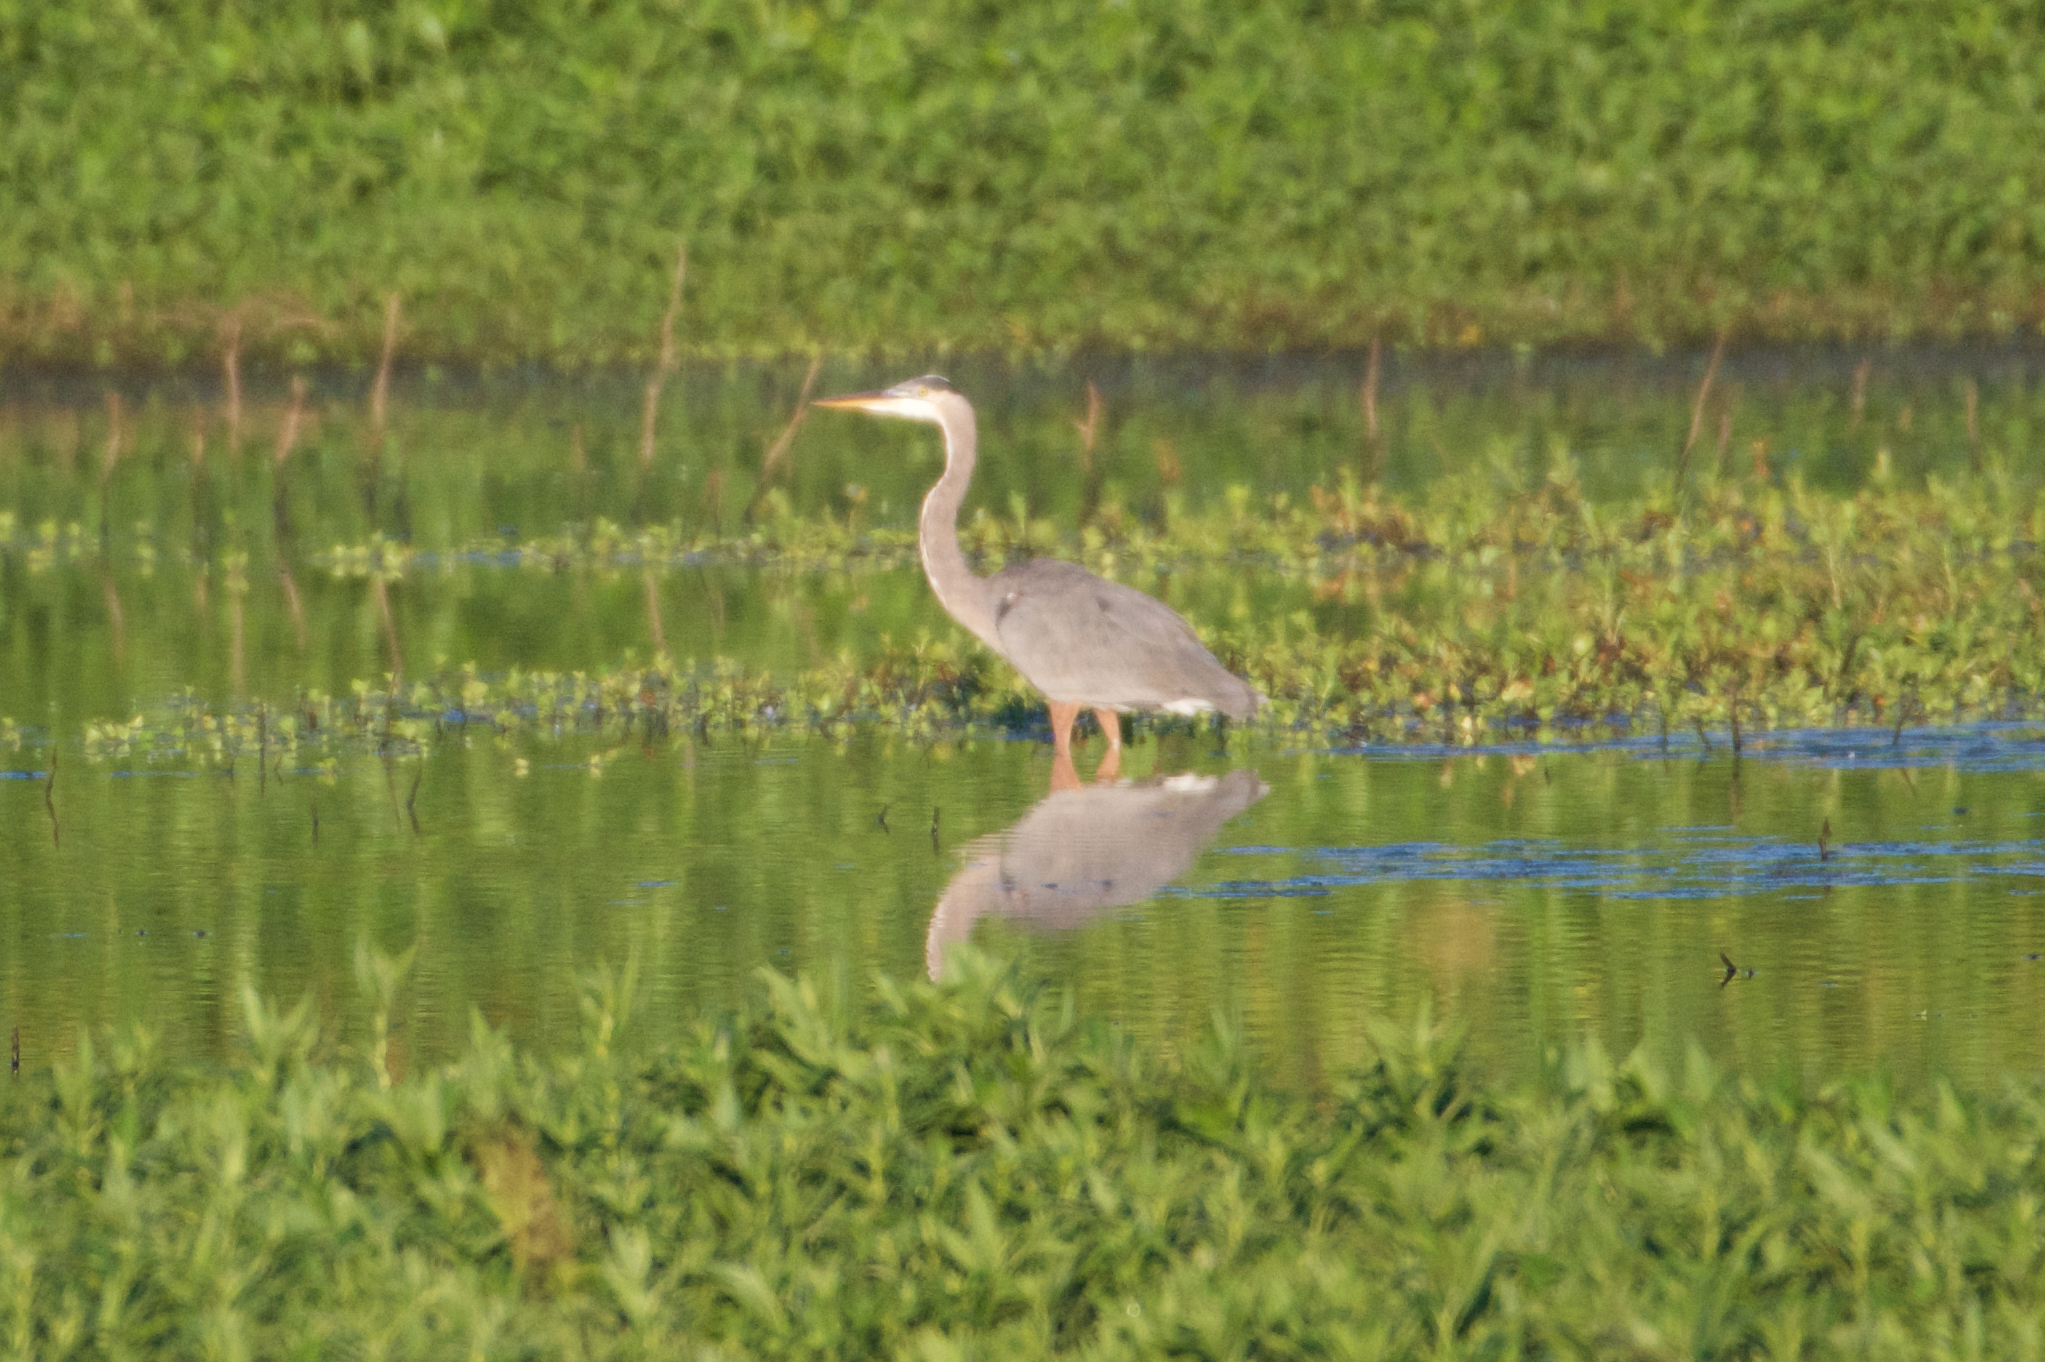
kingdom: Animalia
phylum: Chordata
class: Aves
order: Pelecaniformes
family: Ardeidae
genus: Ardea
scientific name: Ardea herodias
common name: Great blue heron
